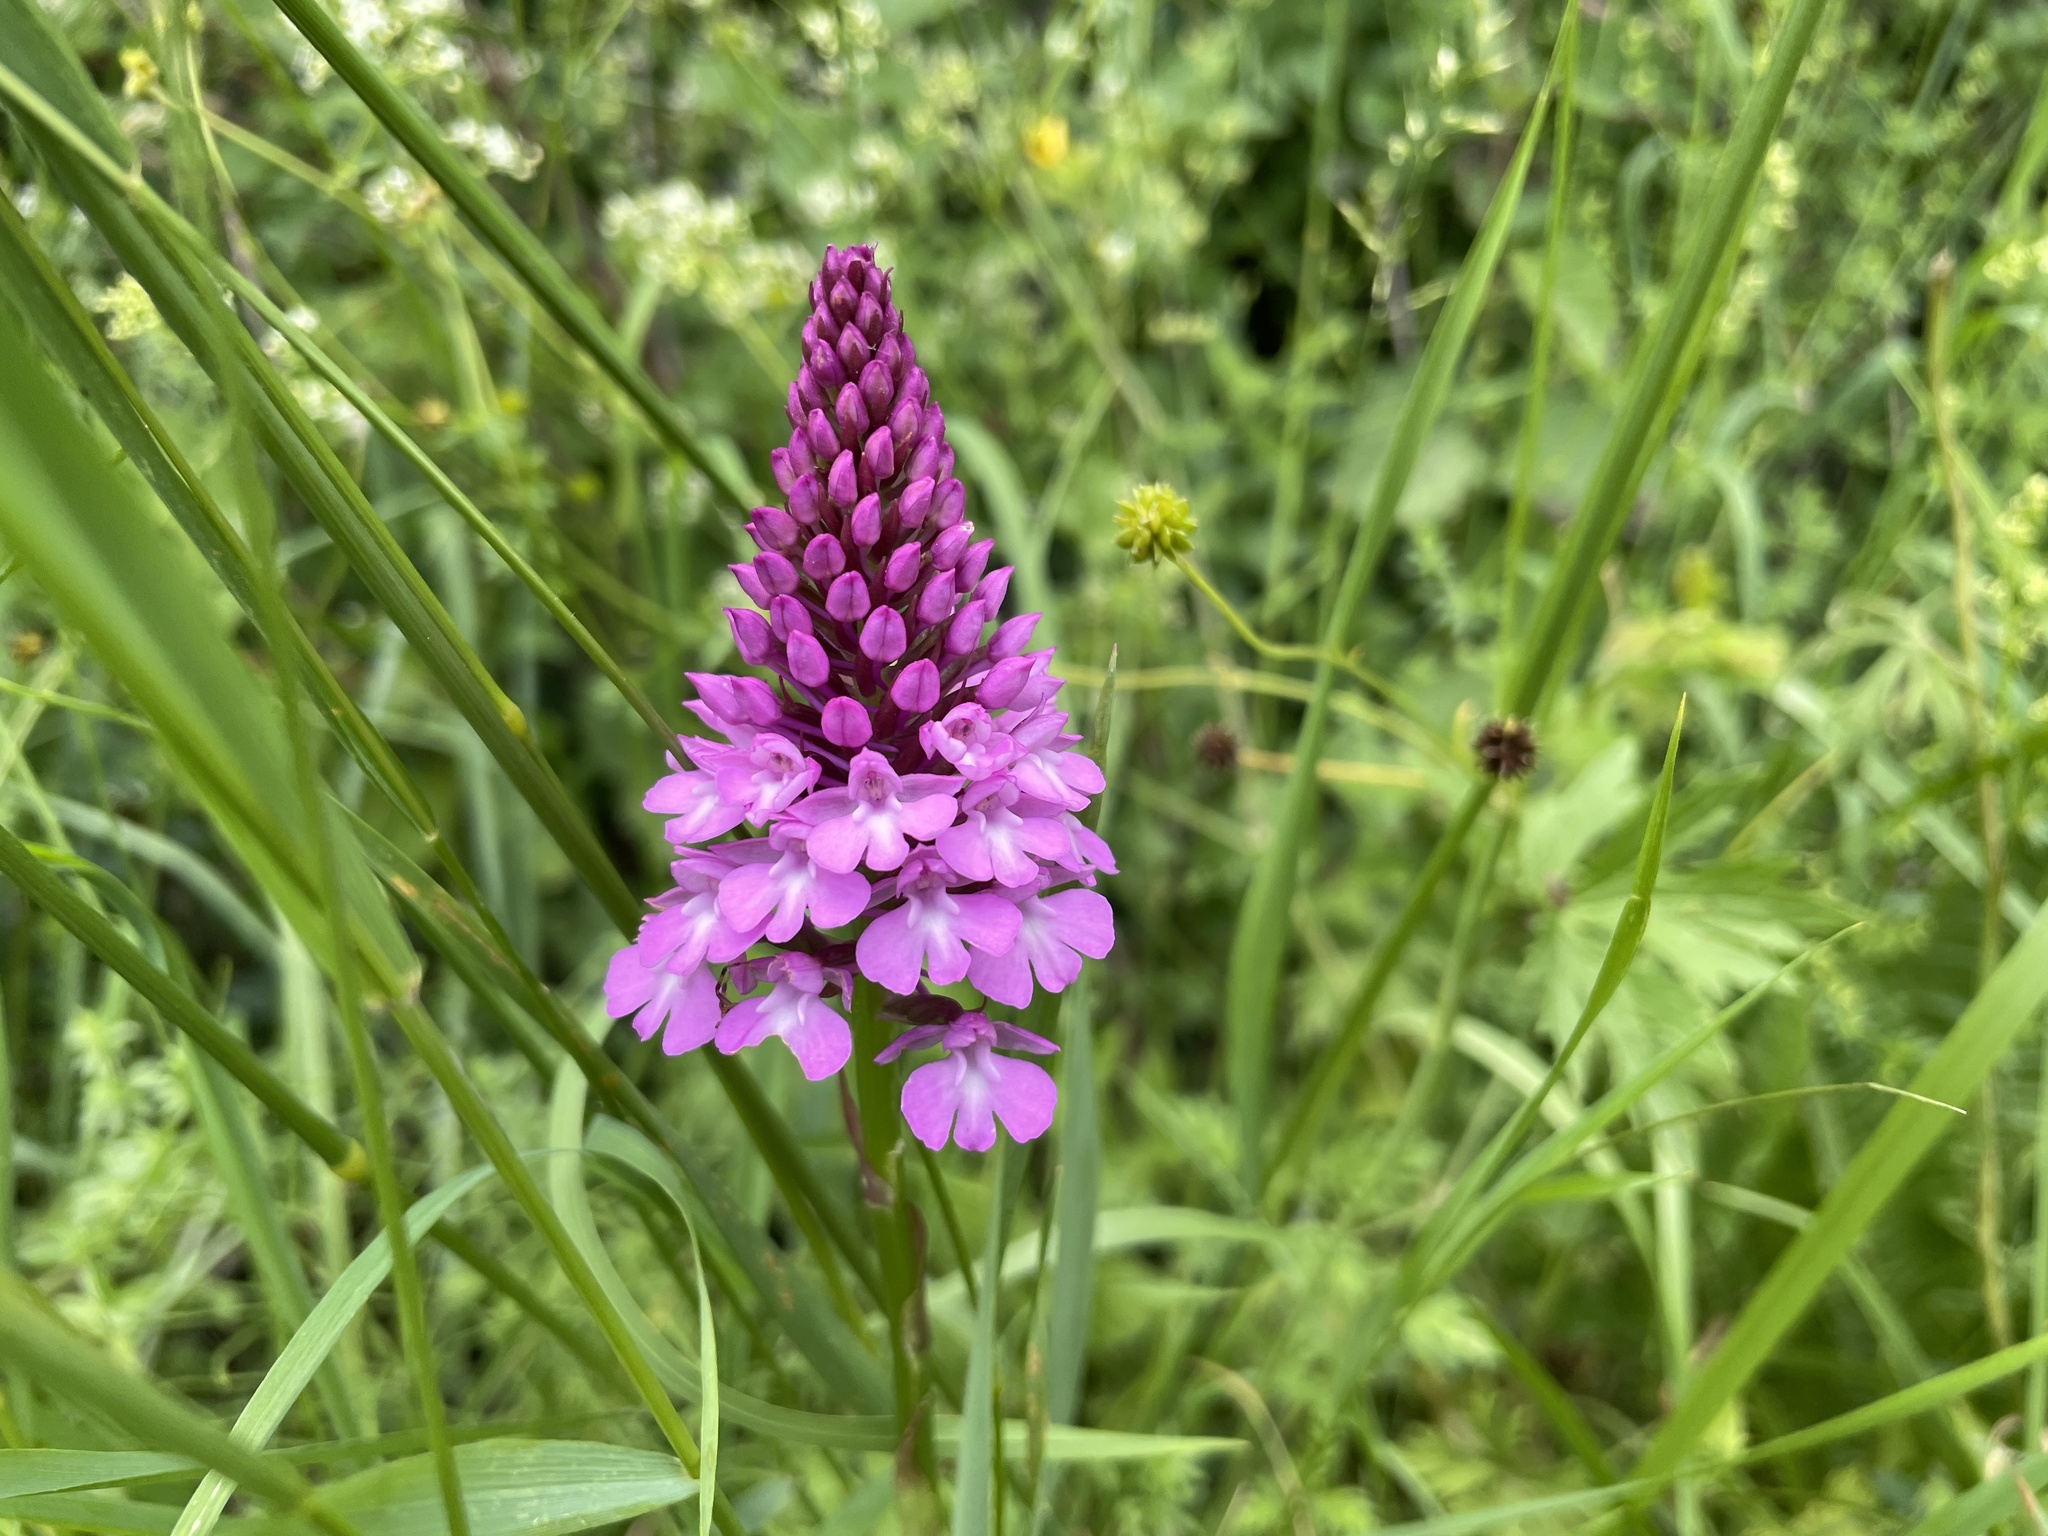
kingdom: Plantae
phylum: Tracheophyta
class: Liliopsida
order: Asparagales
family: Orchidaceae
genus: Anacamptis
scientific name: Anacamptis pyramidalis
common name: Pyramidal orchid
